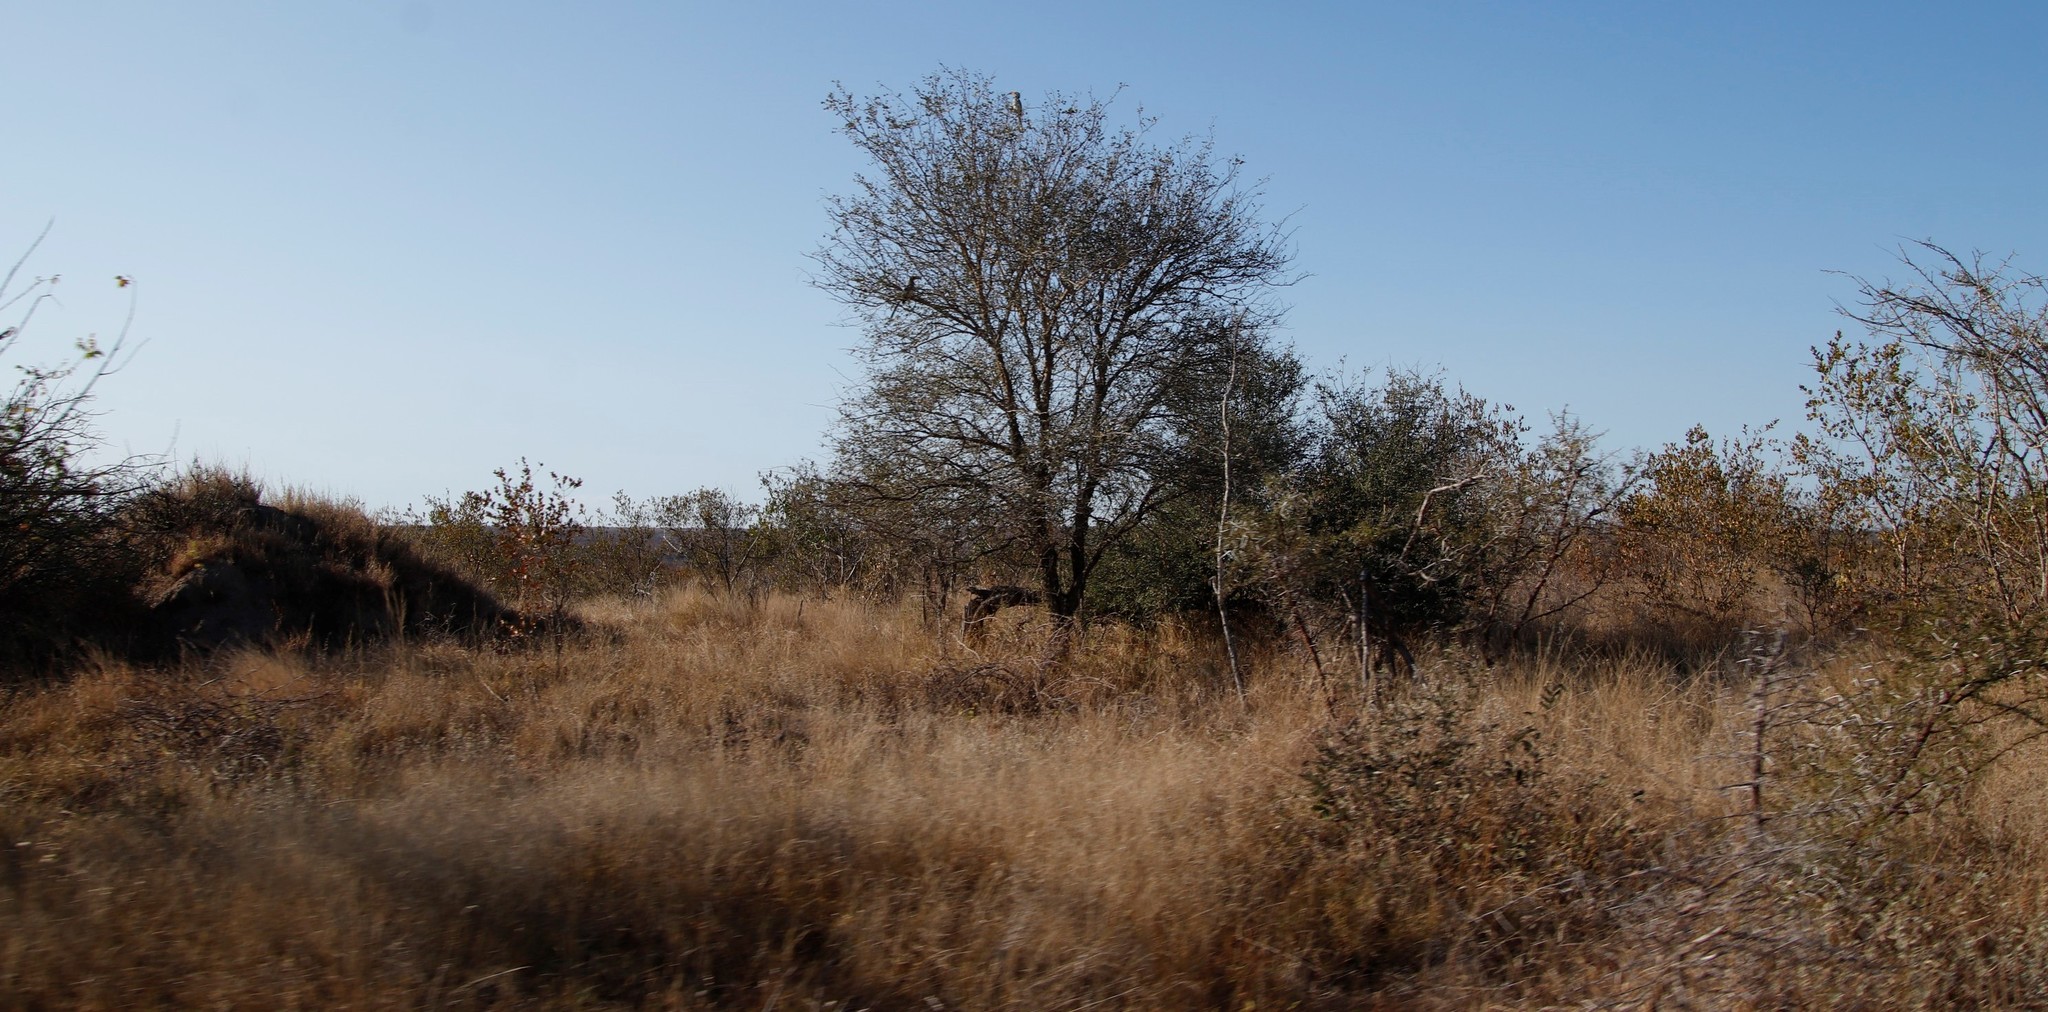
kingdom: Plantae
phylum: Tracheophyta
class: Magnoliopsida
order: Fabales
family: Fabaceae
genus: Senegalia
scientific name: Senegalia nigrescens
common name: Knobthorn
